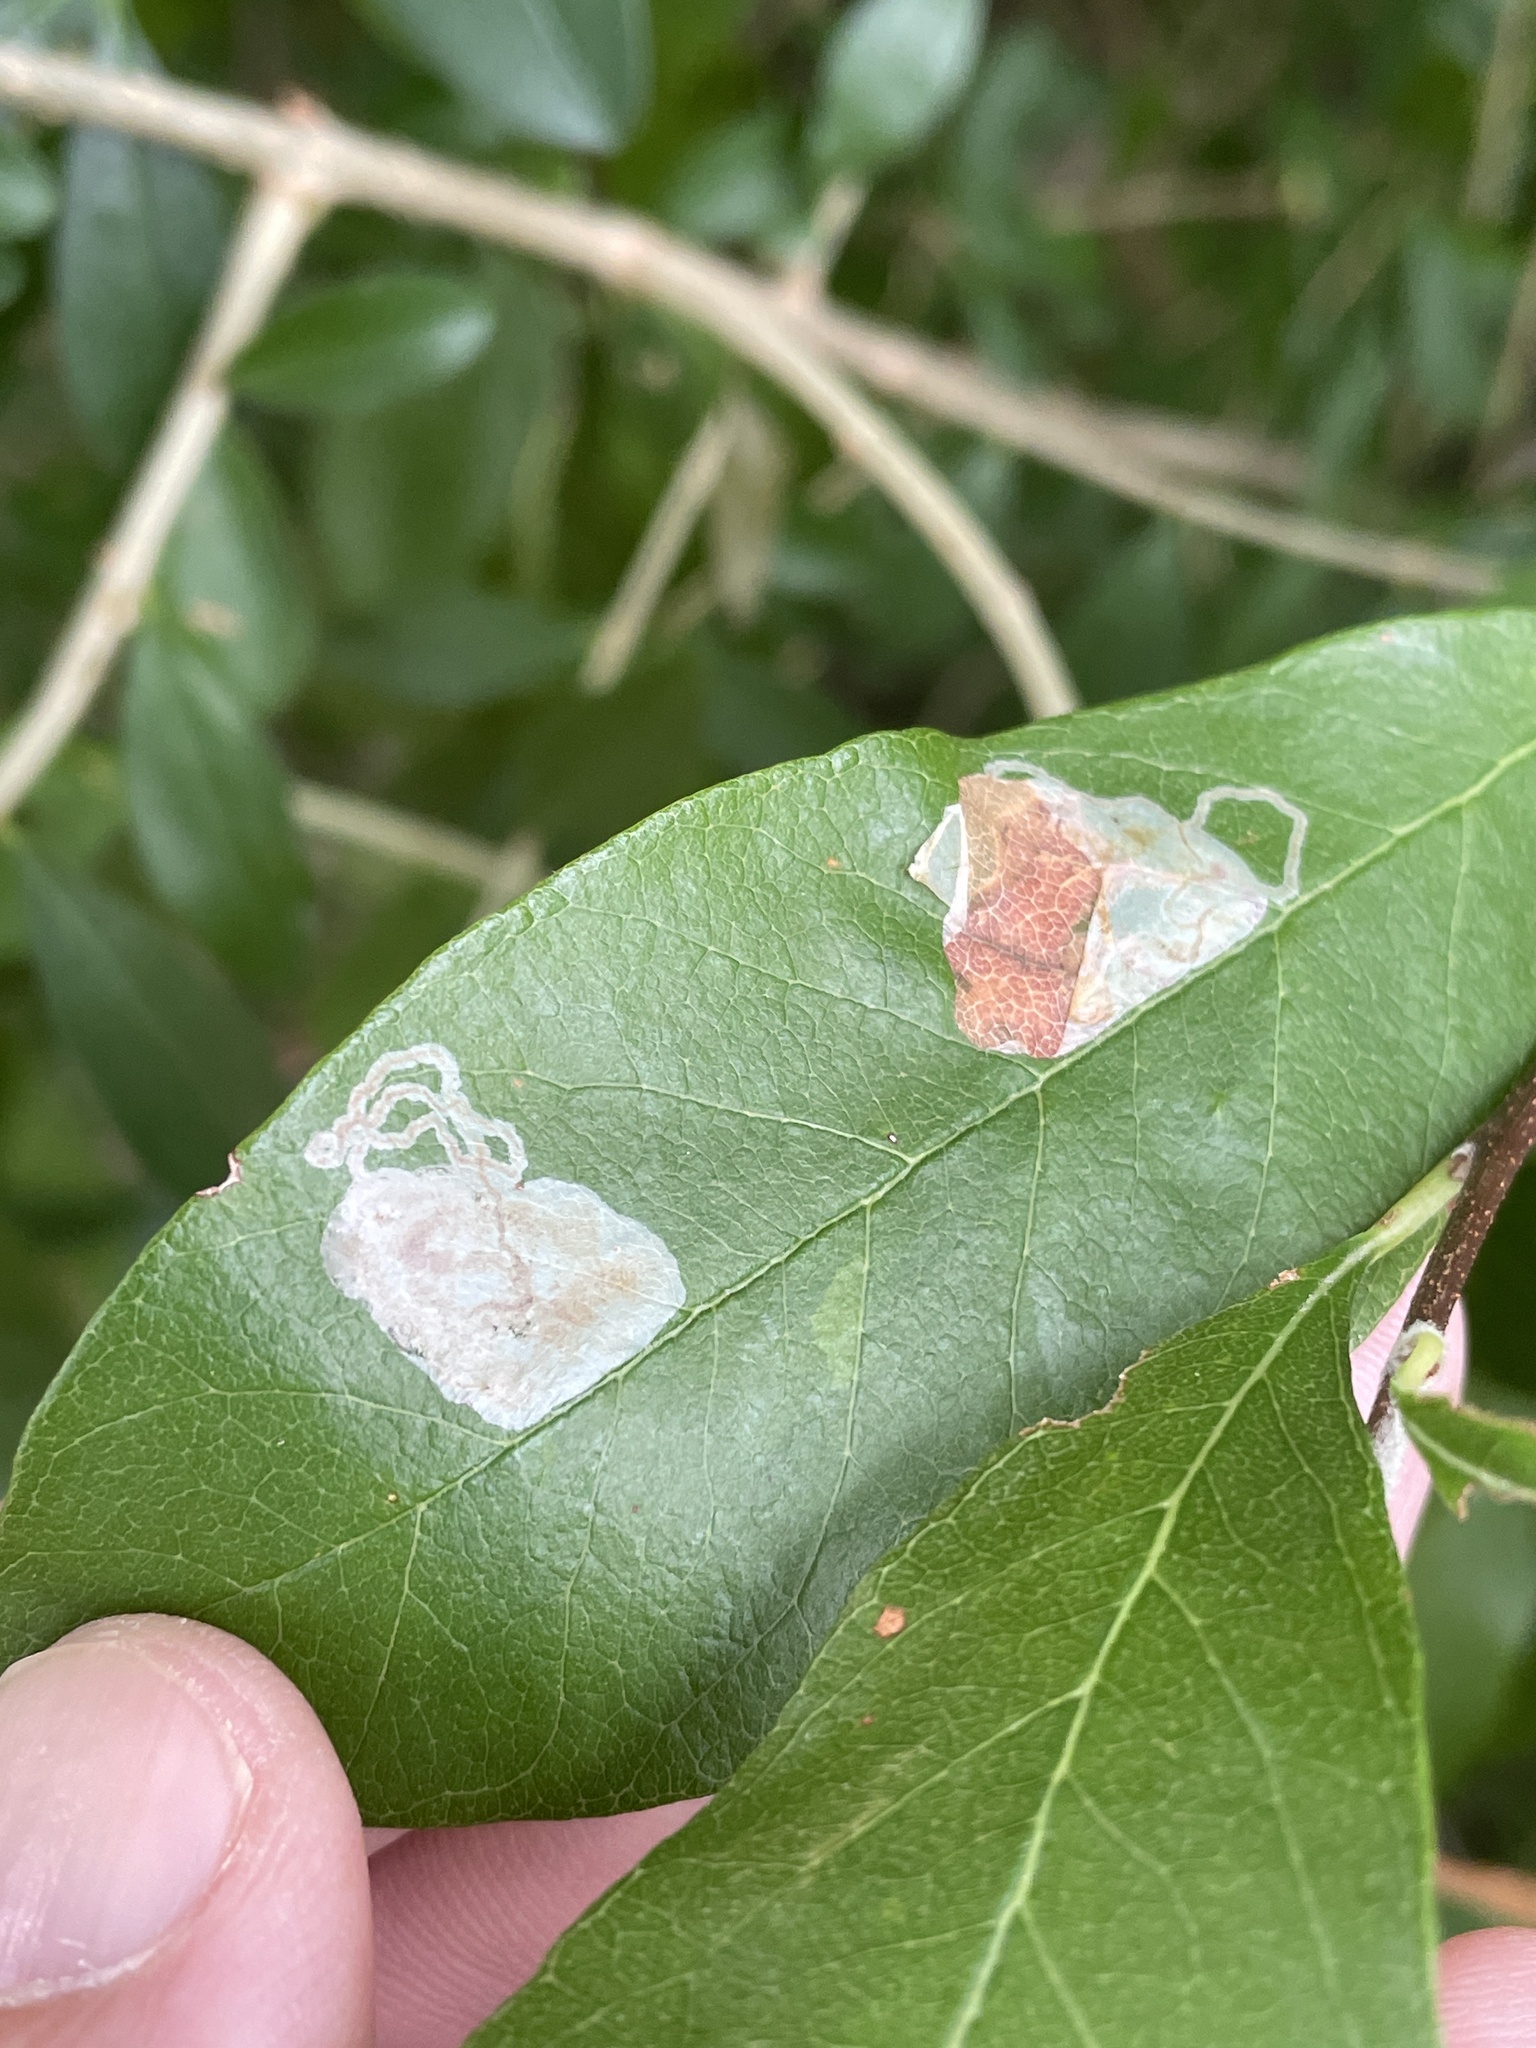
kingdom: Animalia
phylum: Arthropoda
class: Insecta
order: Lepidoptera
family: Gracillariidae
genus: Parectopa
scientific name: Parectopa bumeliella
